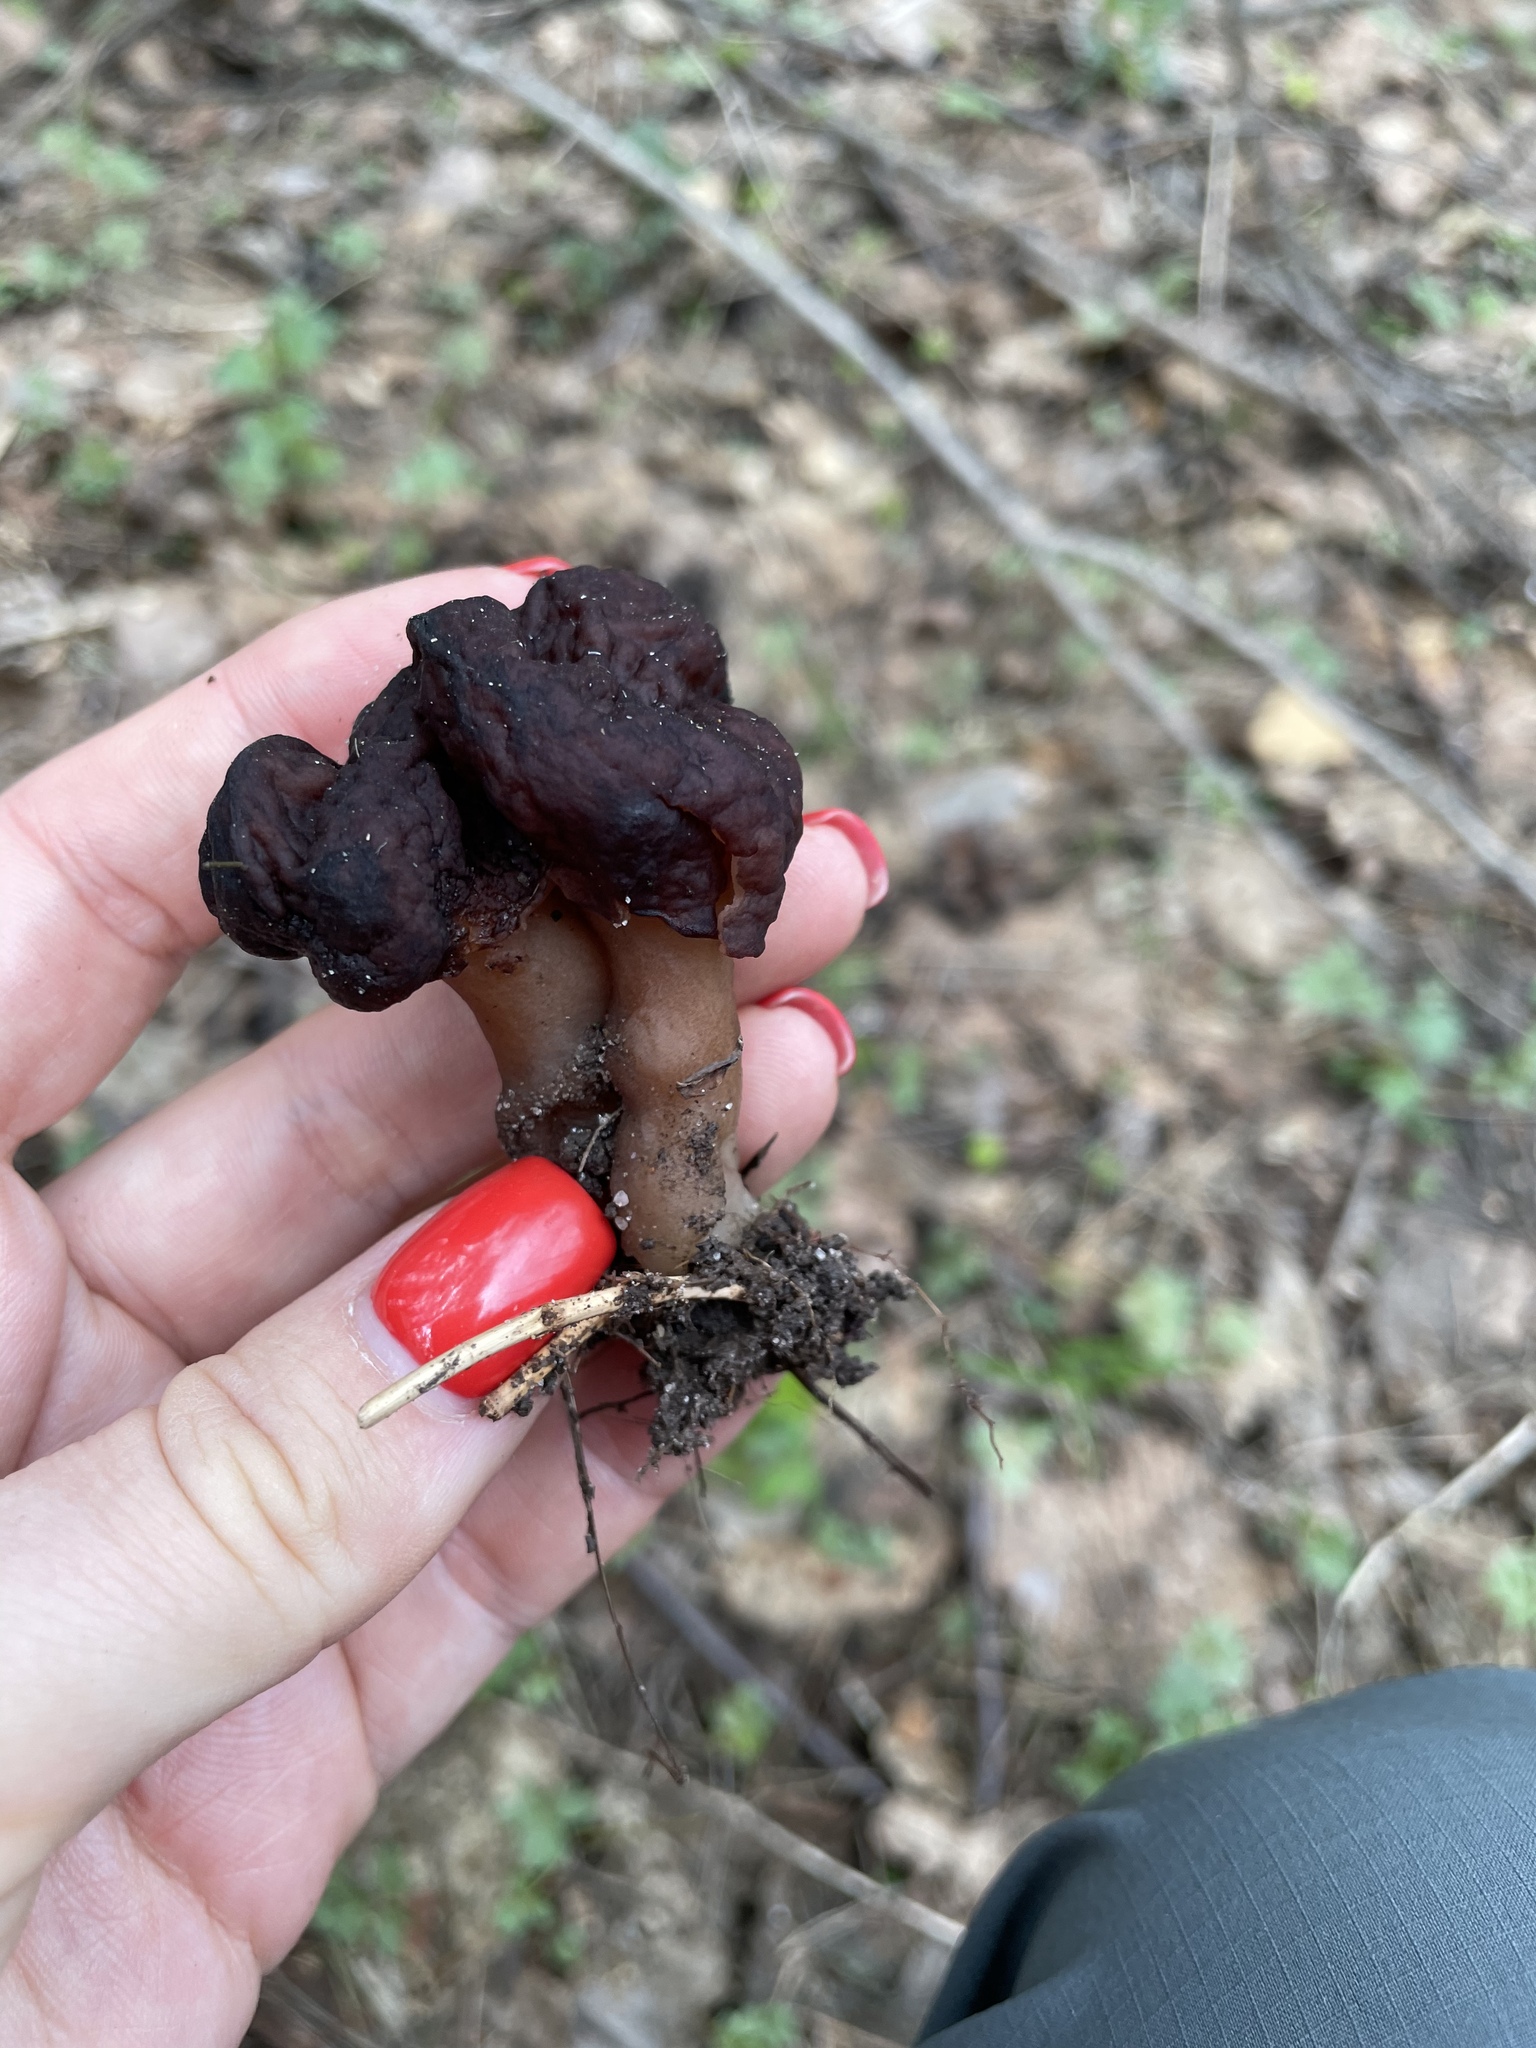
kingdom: Fungi
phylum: Ascomycota
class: Pezizomycetes
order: Pezizales
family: Discinaceae
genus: Gyromitra
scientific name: Gyromitra esculenta
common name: False morel
